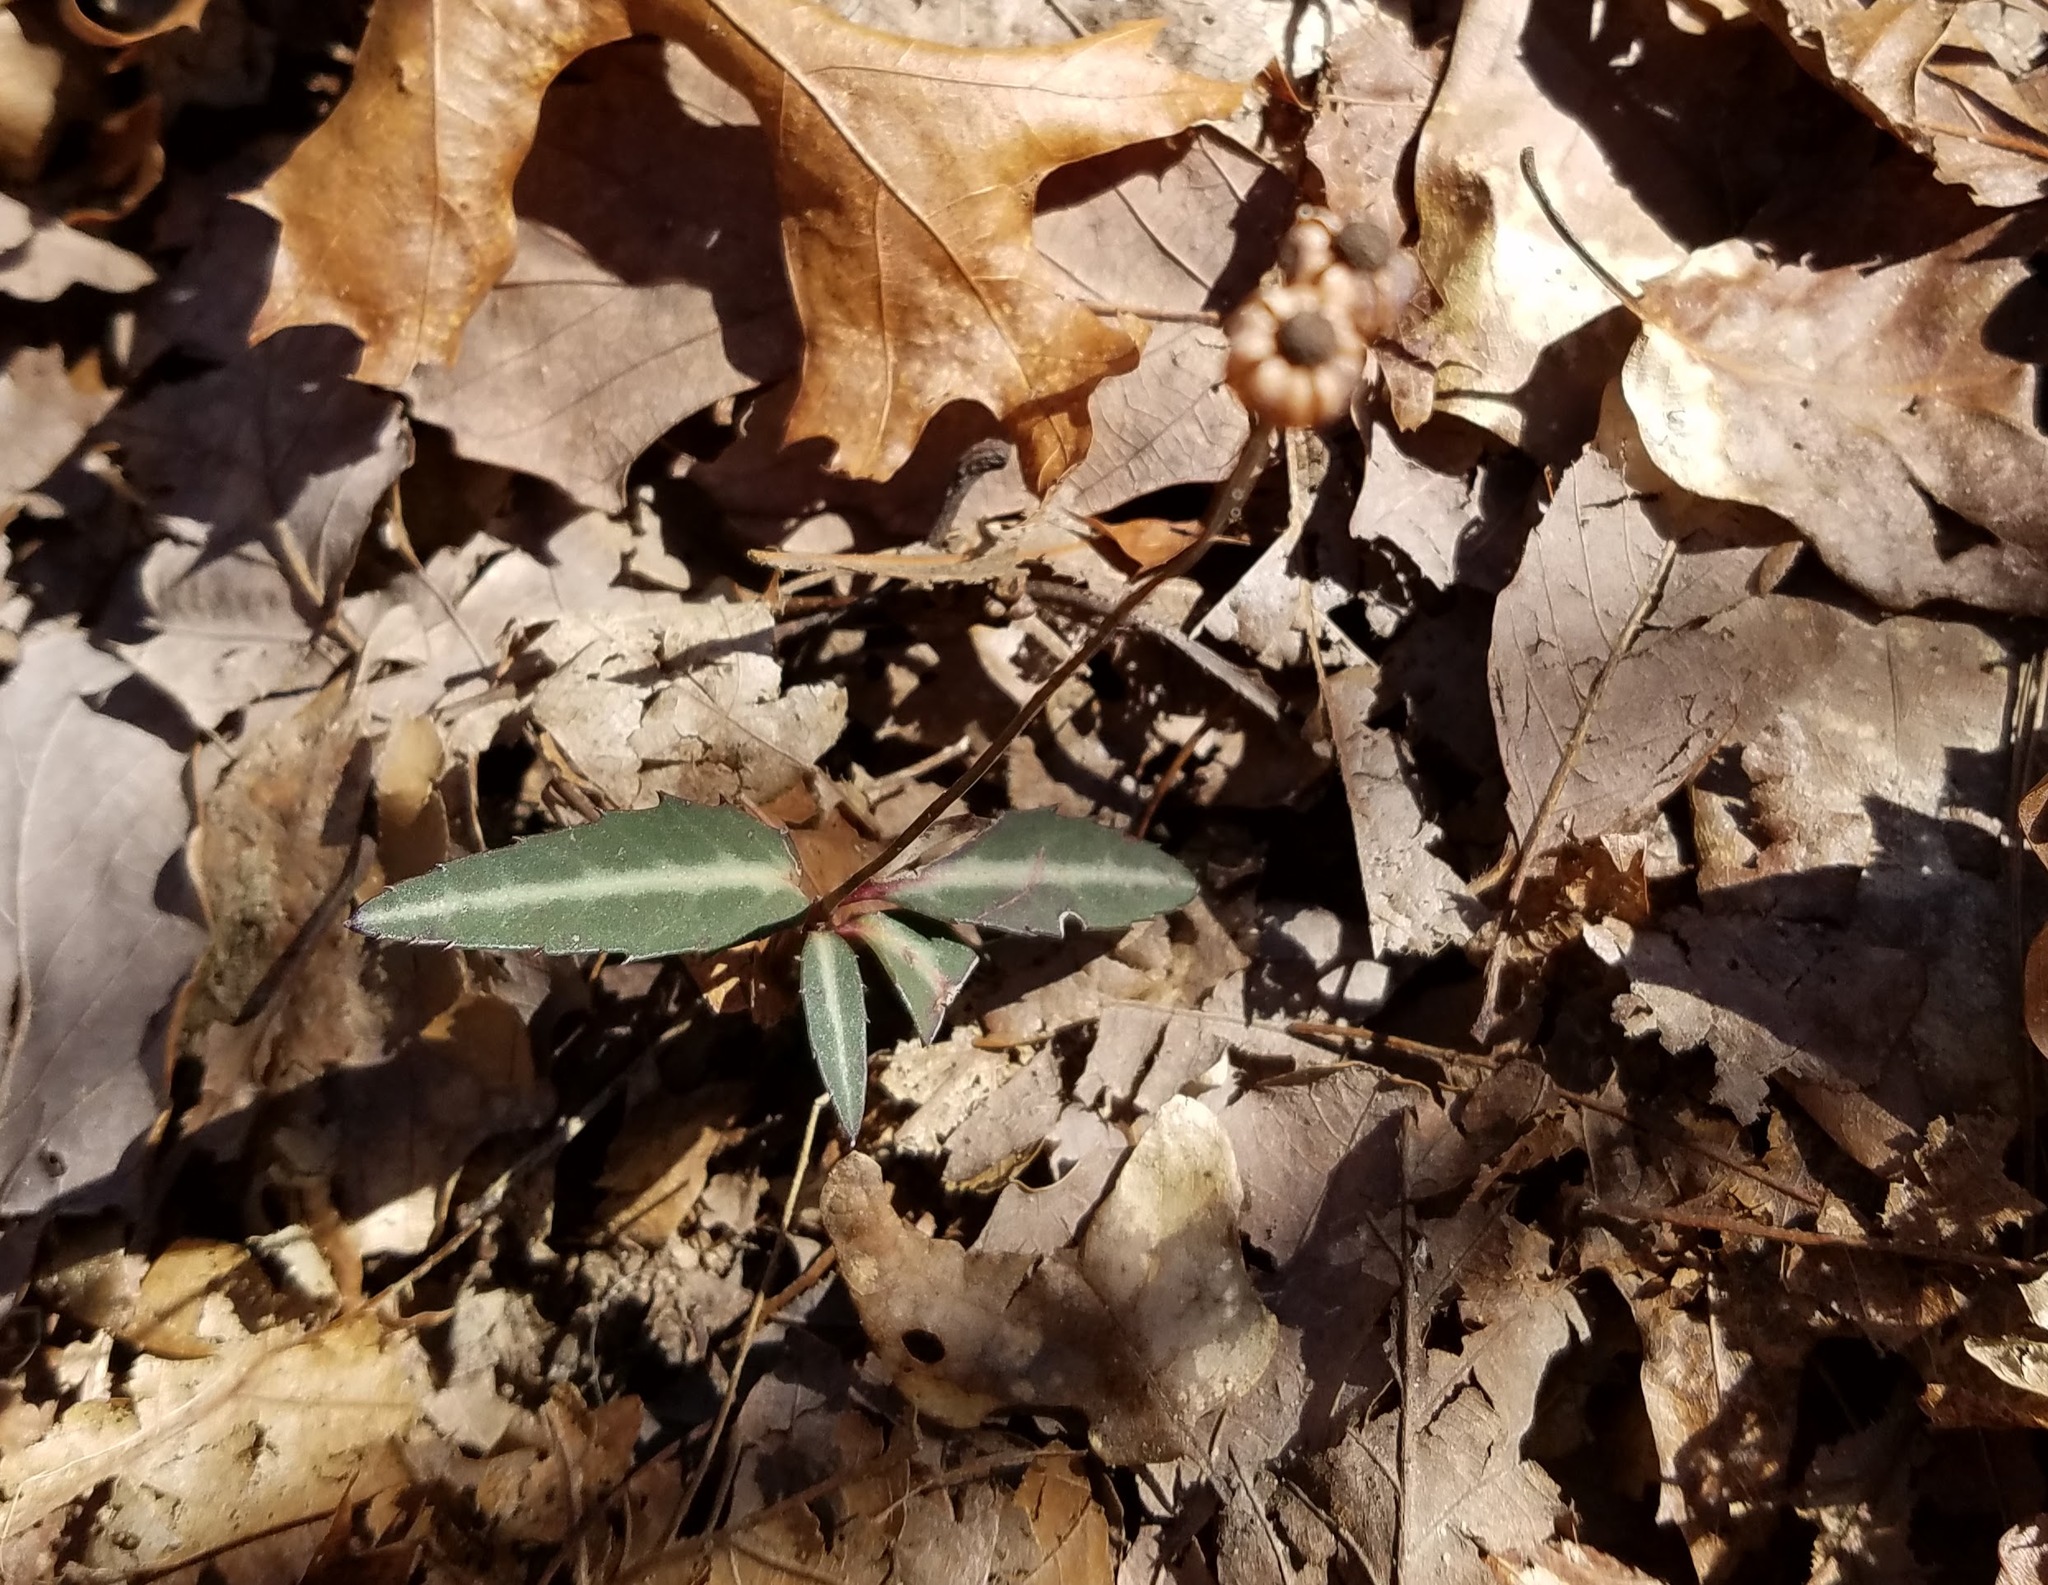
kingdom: Plantae
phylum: Tracheophyta
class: Magnoliopsida
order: Ericales
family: Ericaceae
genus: Chimaphila
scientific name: Chimaphila maculata
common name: Spotted pipsissewa
